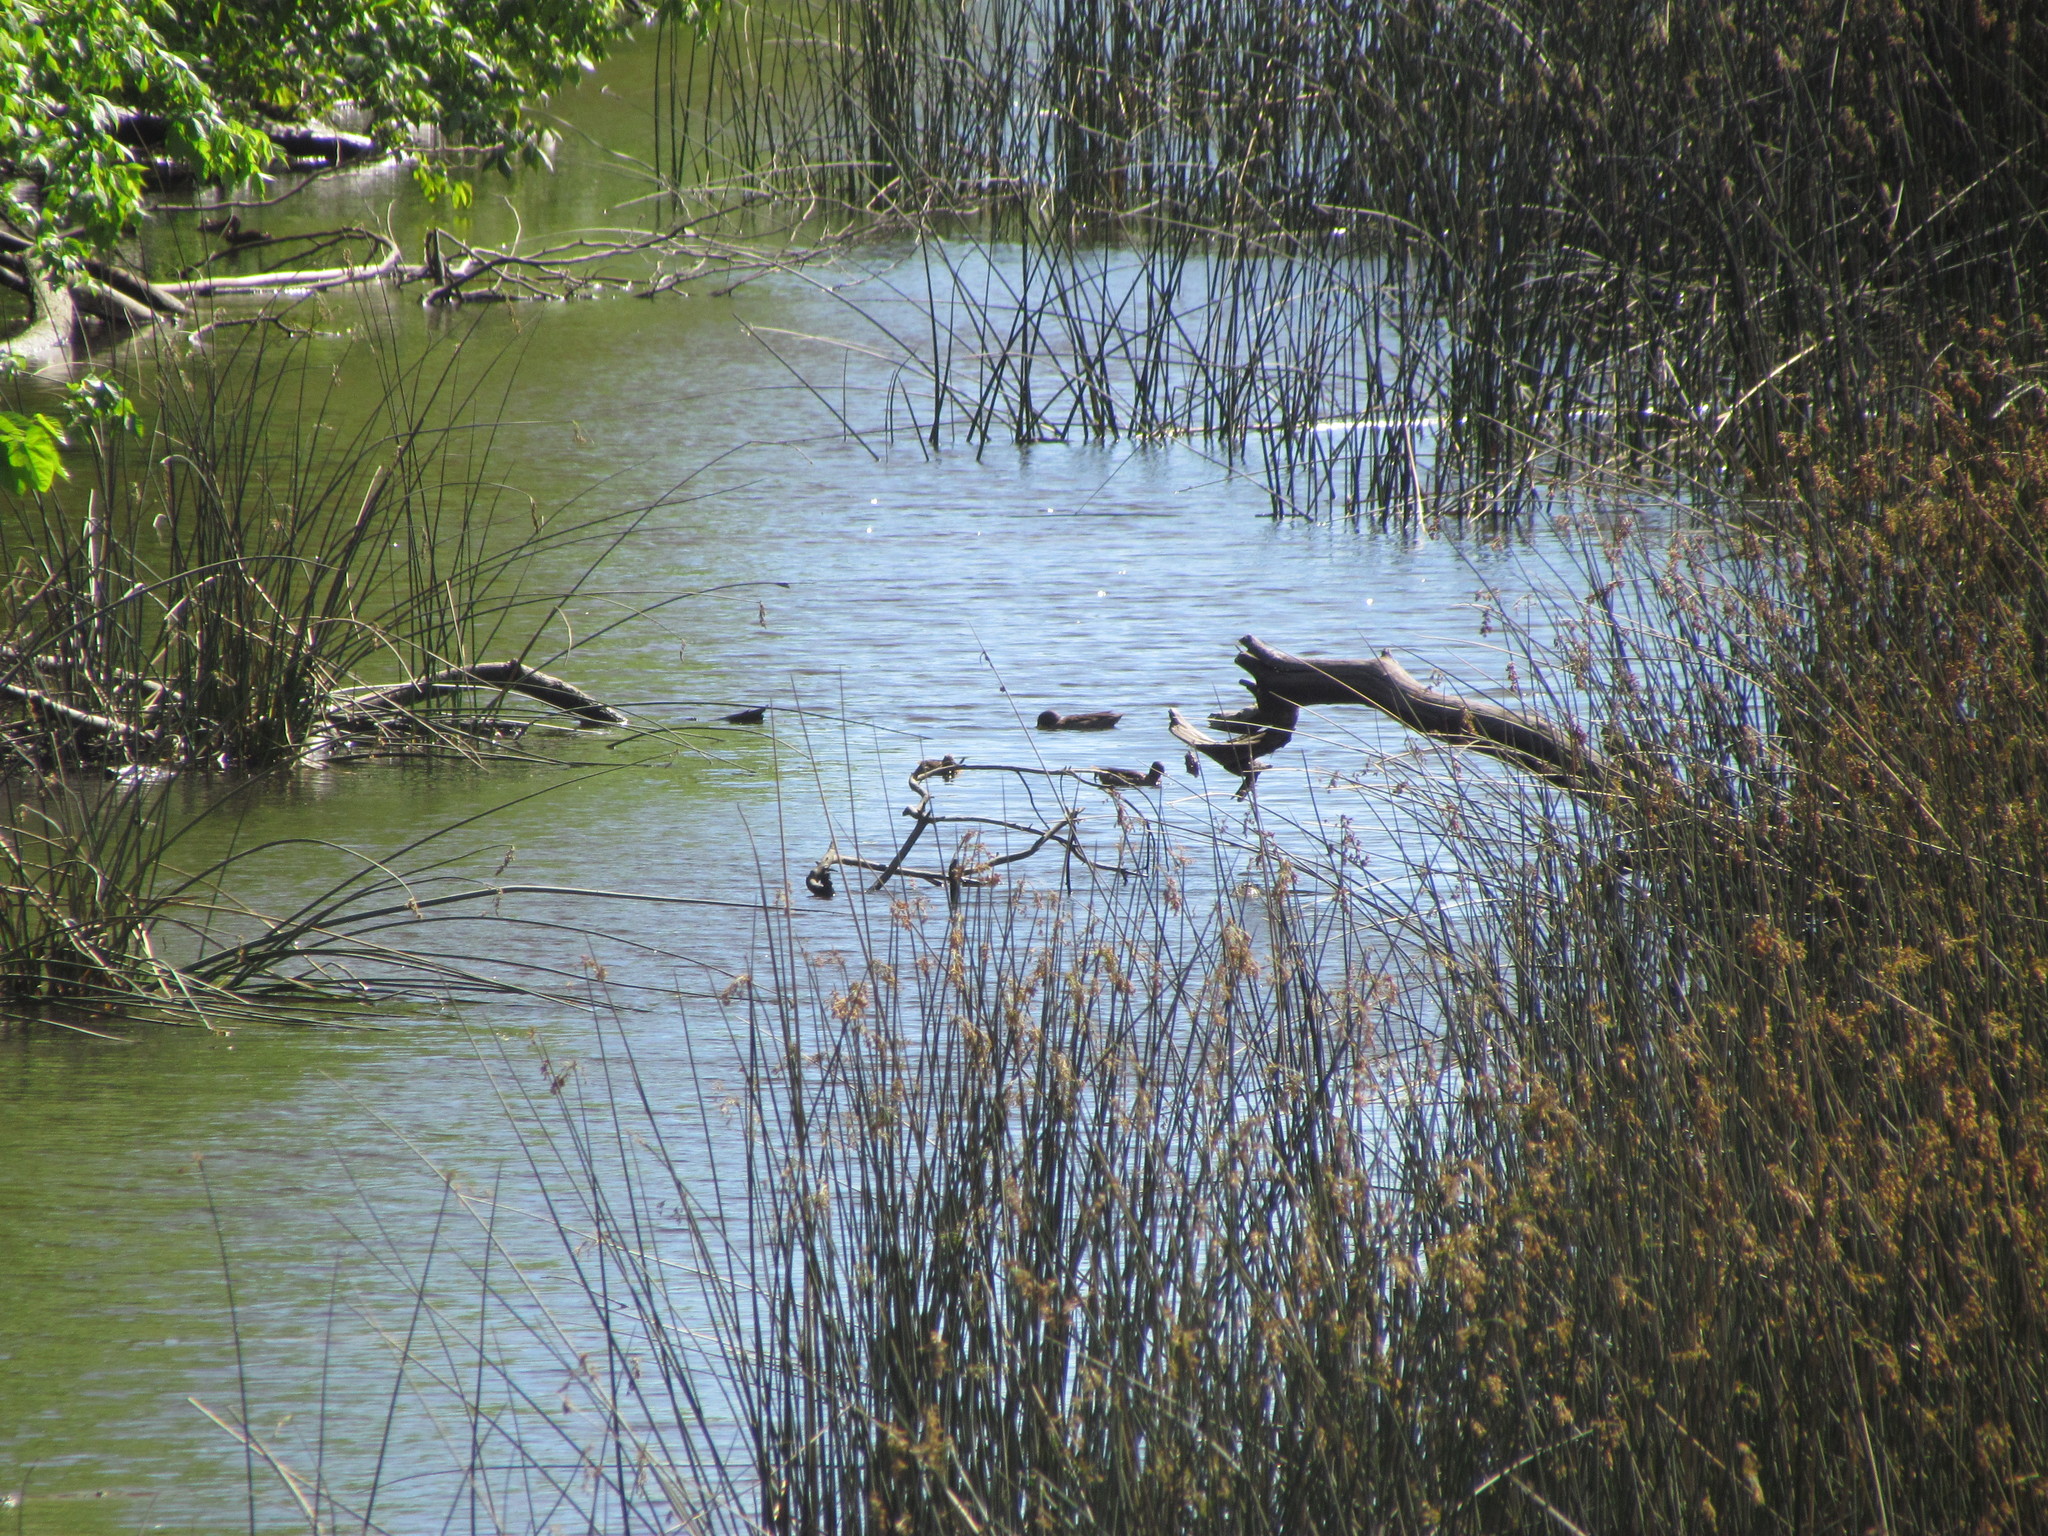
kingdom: Animalia
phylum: Chordata
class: Aves
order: Anseriformes
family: Anatidae
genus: Anas
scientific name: Anas flavirostris
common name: Yellow-billed teal
